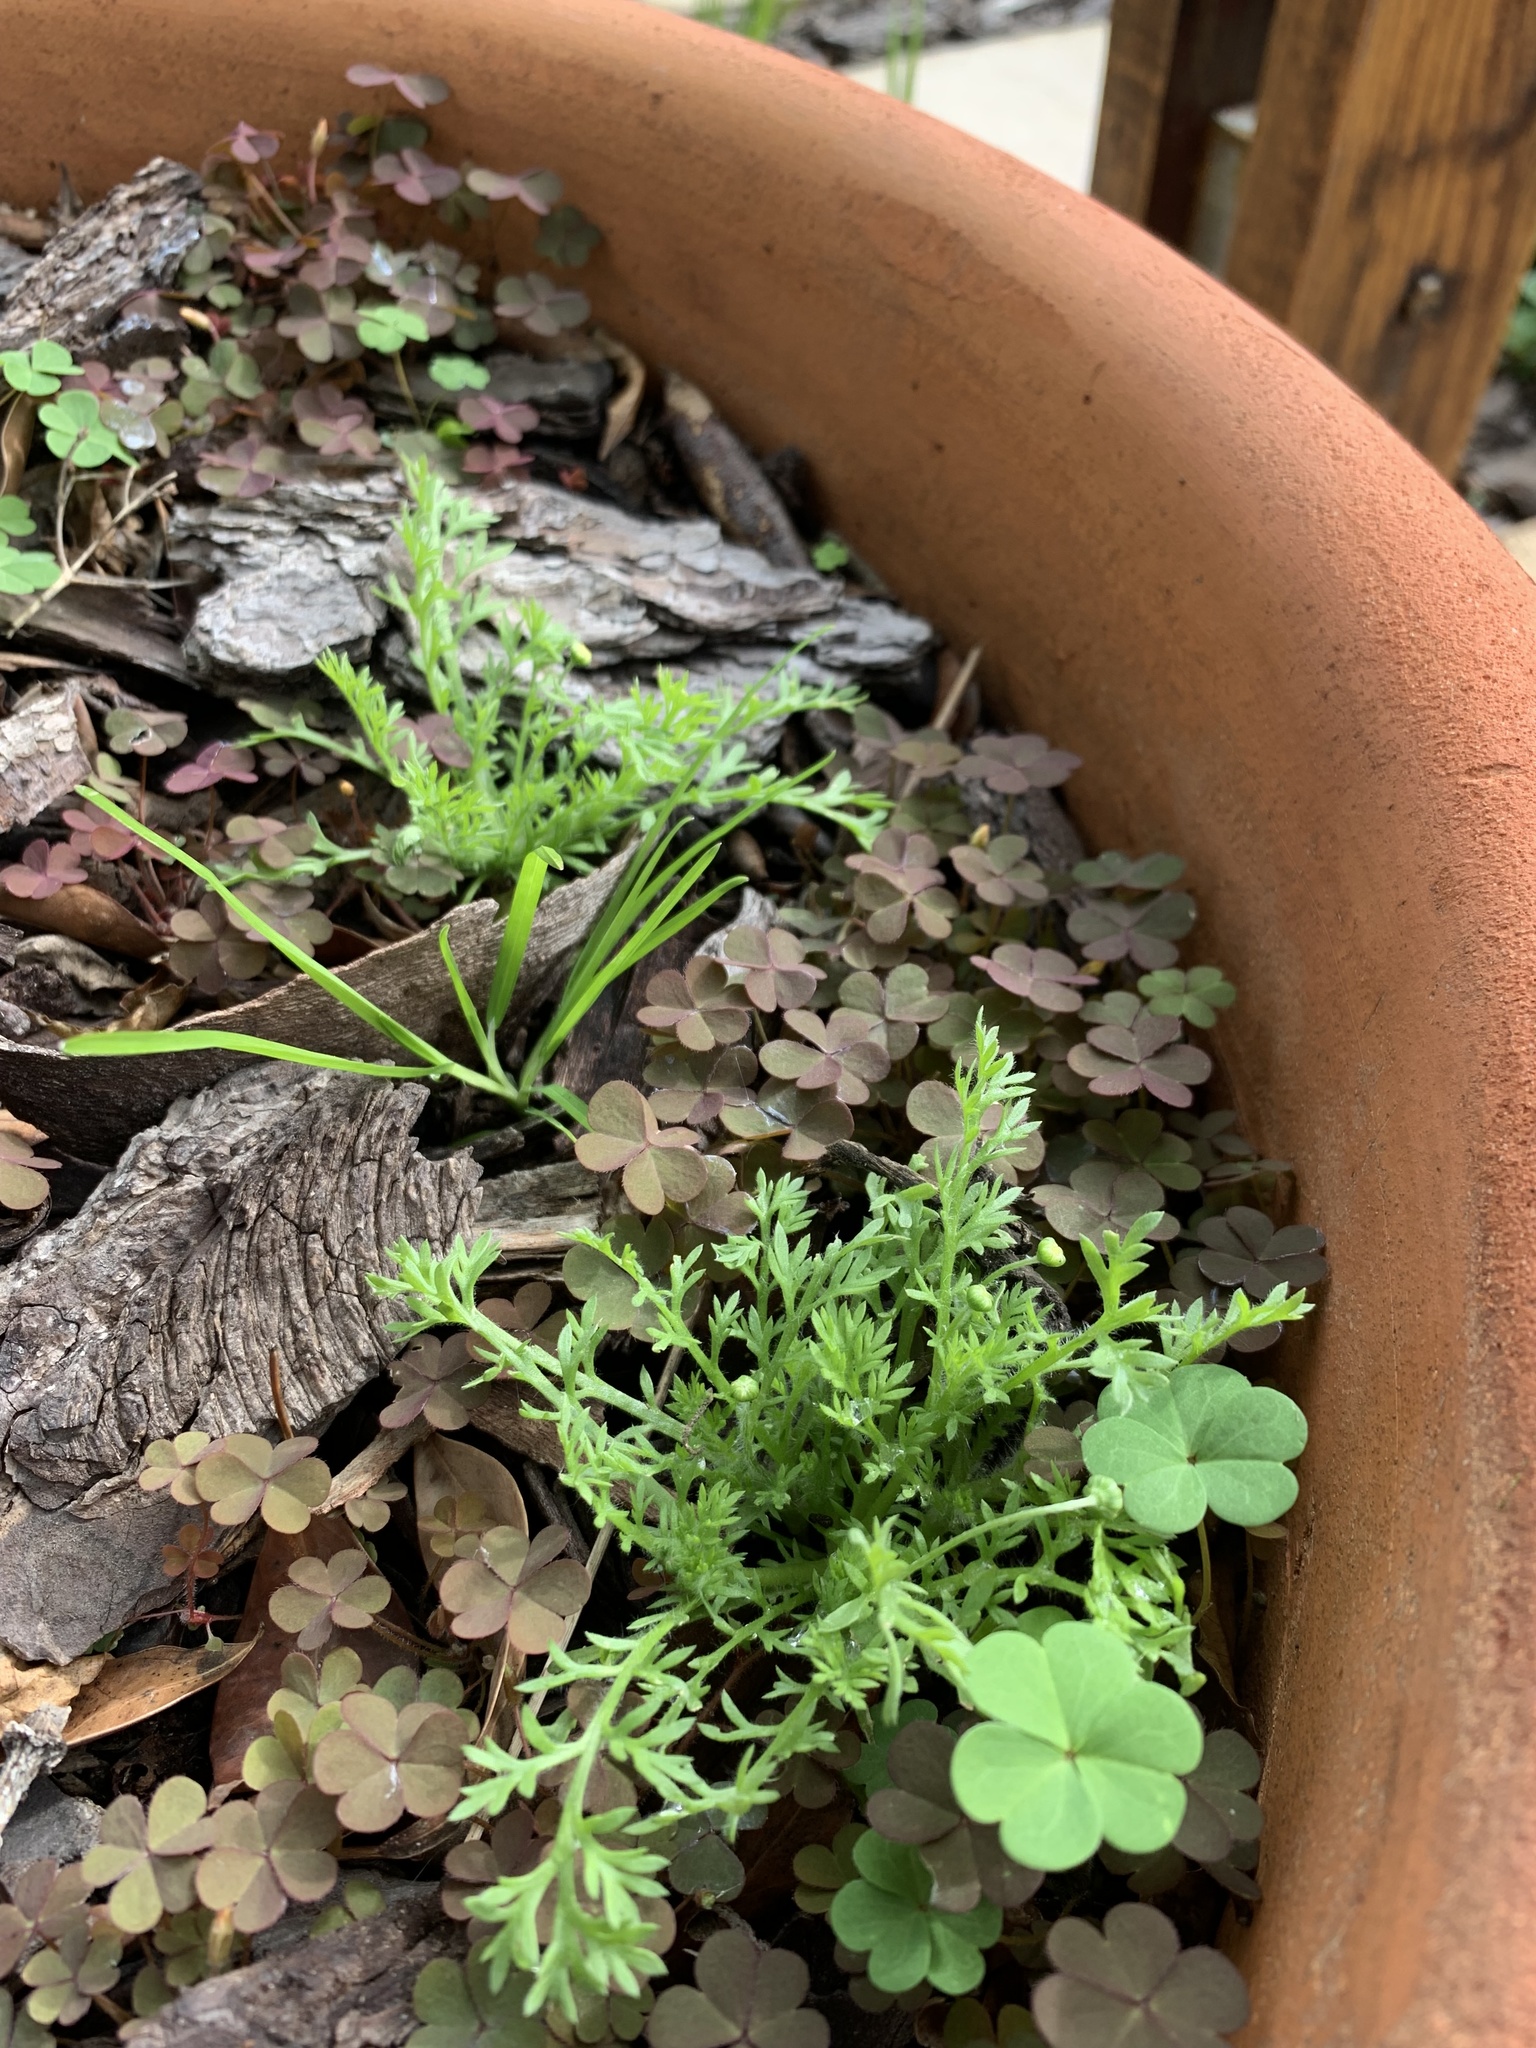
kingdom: Plantae
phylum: Tracheophyta
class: Magnoliopsida
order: Asterales
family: Asteraceae
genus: Cotula
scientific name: Cotula australis
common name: Australian waterbuttons
